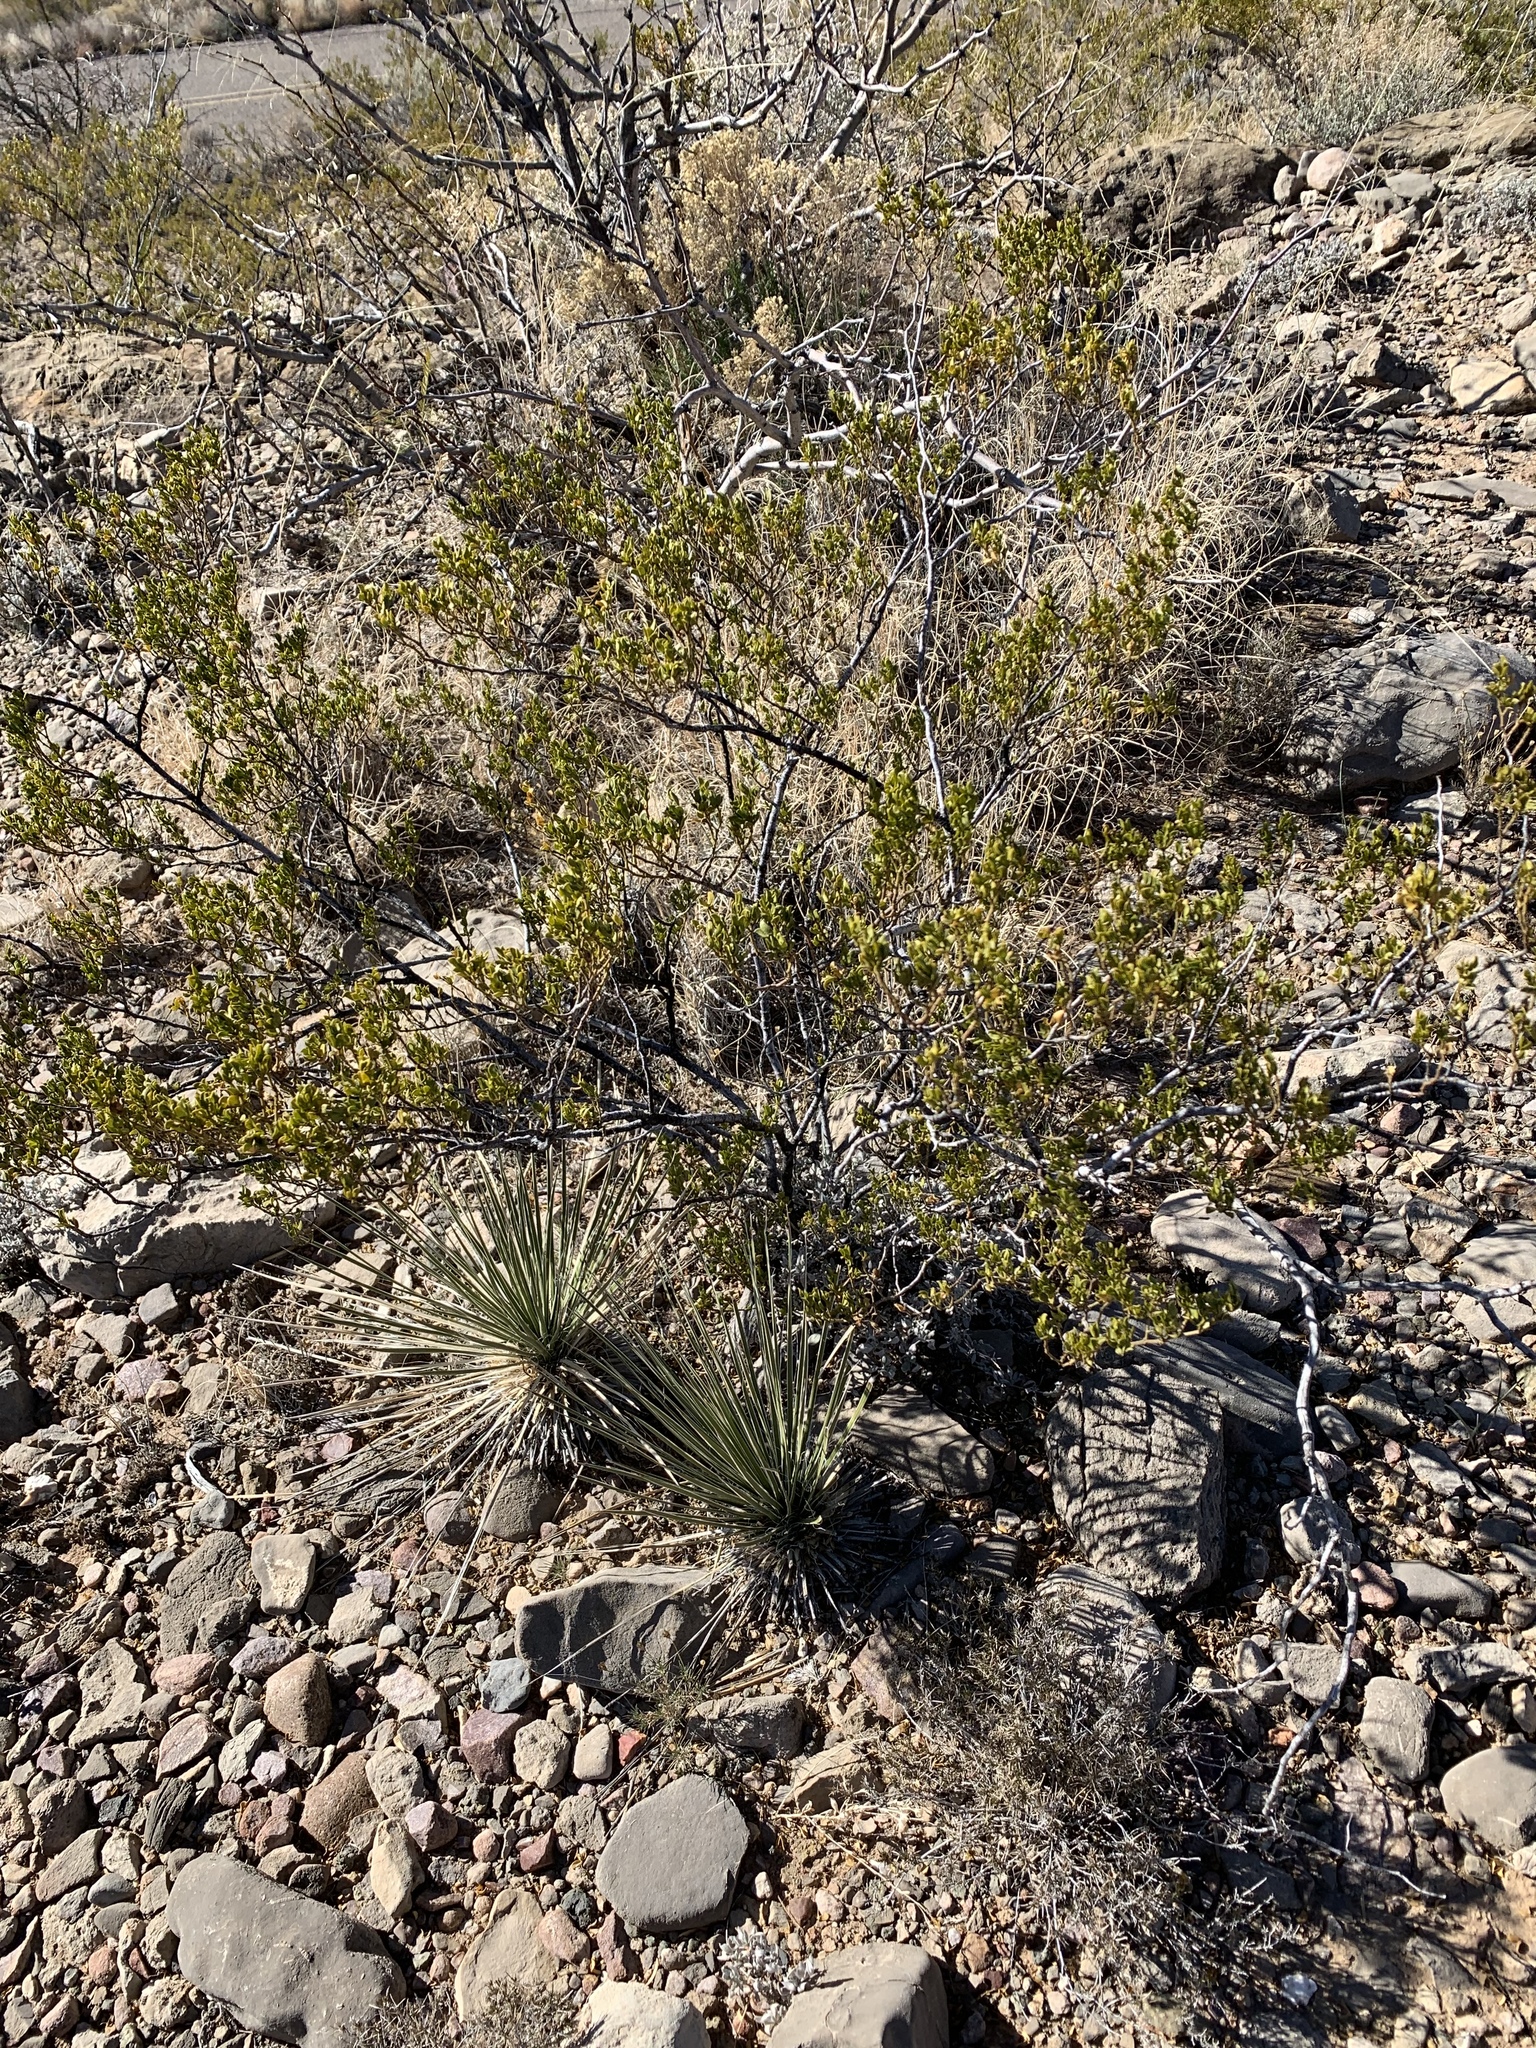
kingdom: Plantae
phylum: Tracheophyta
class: Magnoliopsida
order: Zygophyllales
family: Zygophyllaceae
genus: Larrea
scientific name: Larrea tridentata
